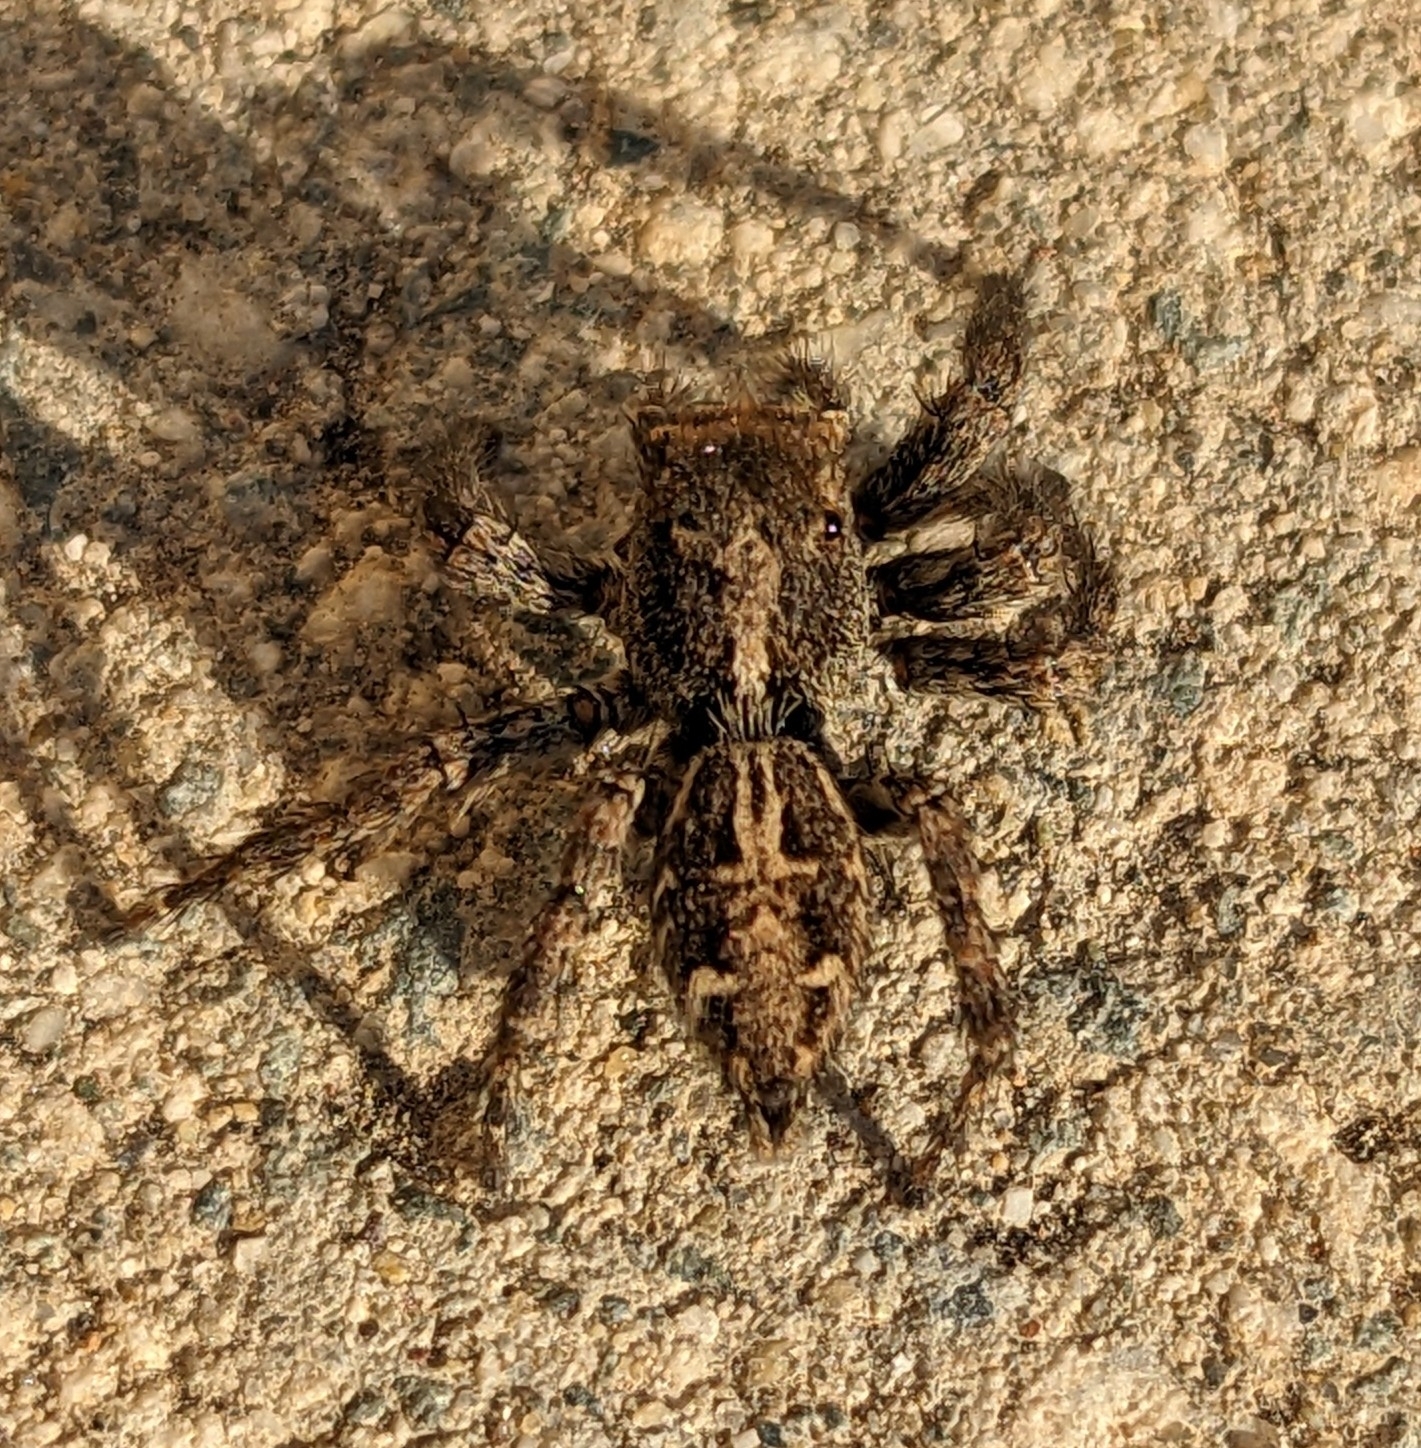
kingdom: Animalia
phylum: Arthropoda
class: Arachnida
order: Araneae
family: Salticidae
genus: Plexippus
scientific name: Plexippus paykulli
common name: Pantropical jumper
